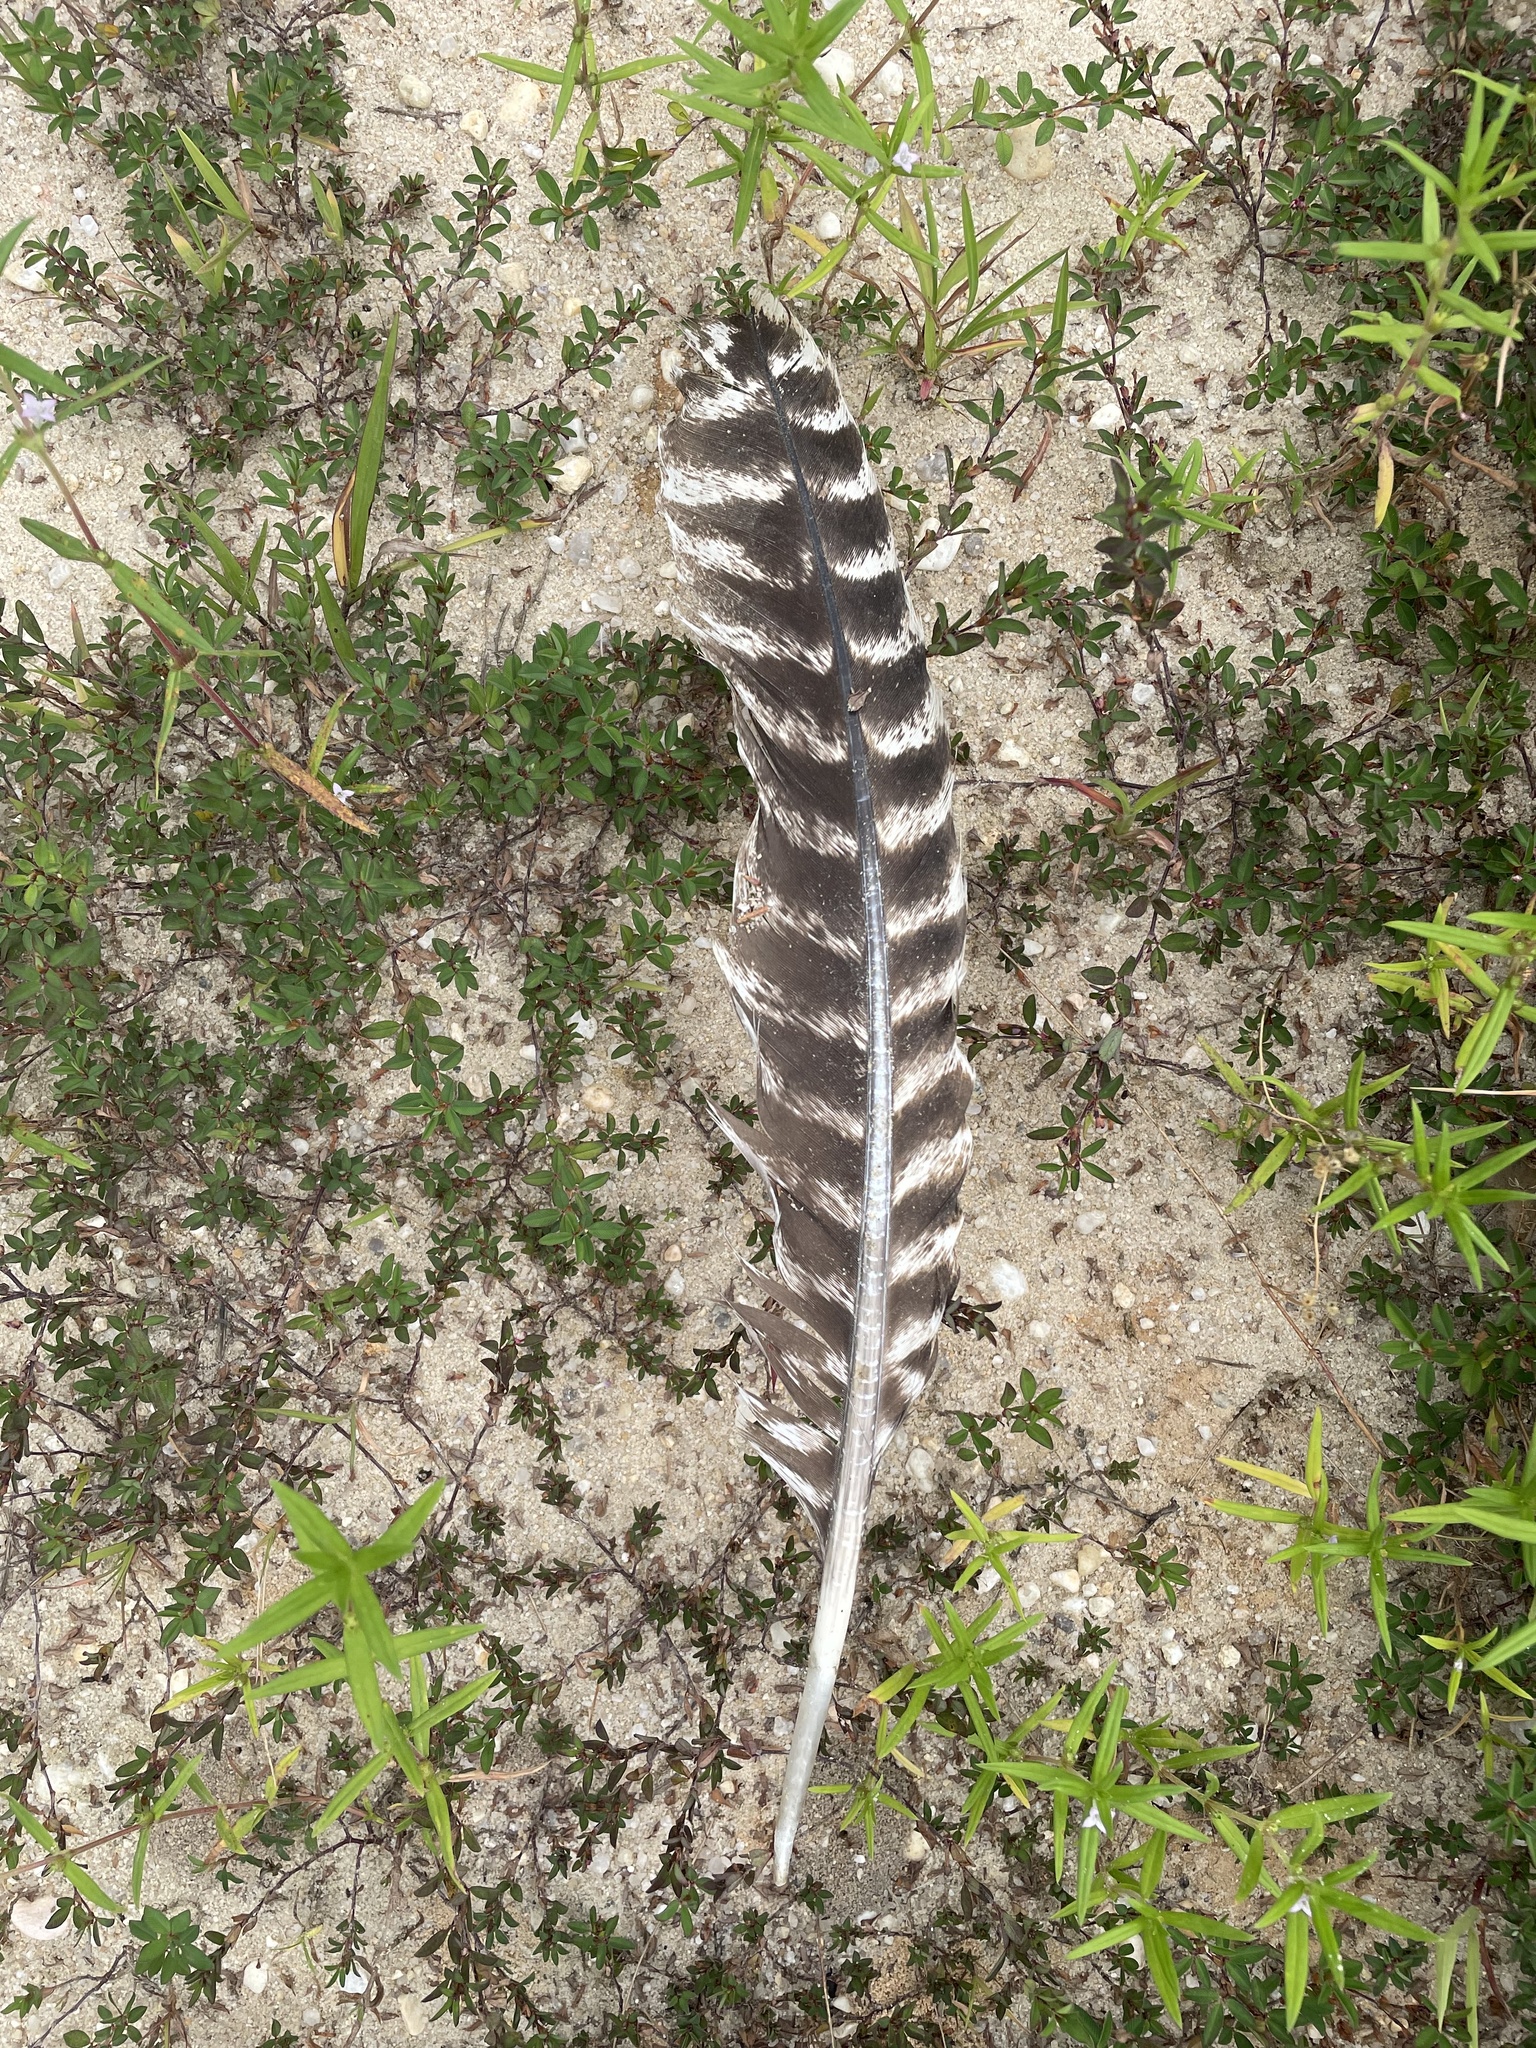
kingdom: Animalia
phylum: Chordata
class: Aves
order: Galliformes
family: Phasianidae
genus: Meleagris
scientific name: Meleagris gallopavo
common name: Wild turkey
